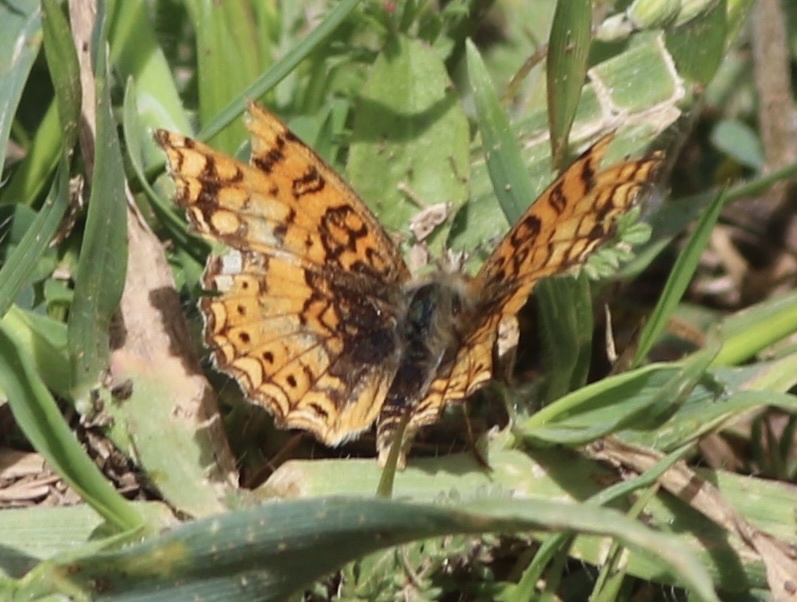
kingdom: Animalia
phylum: Arthropoda
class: Insecta
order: Lepidoptera
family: Nymphalidae
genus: Eresia
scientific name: Eresia aveyrona
